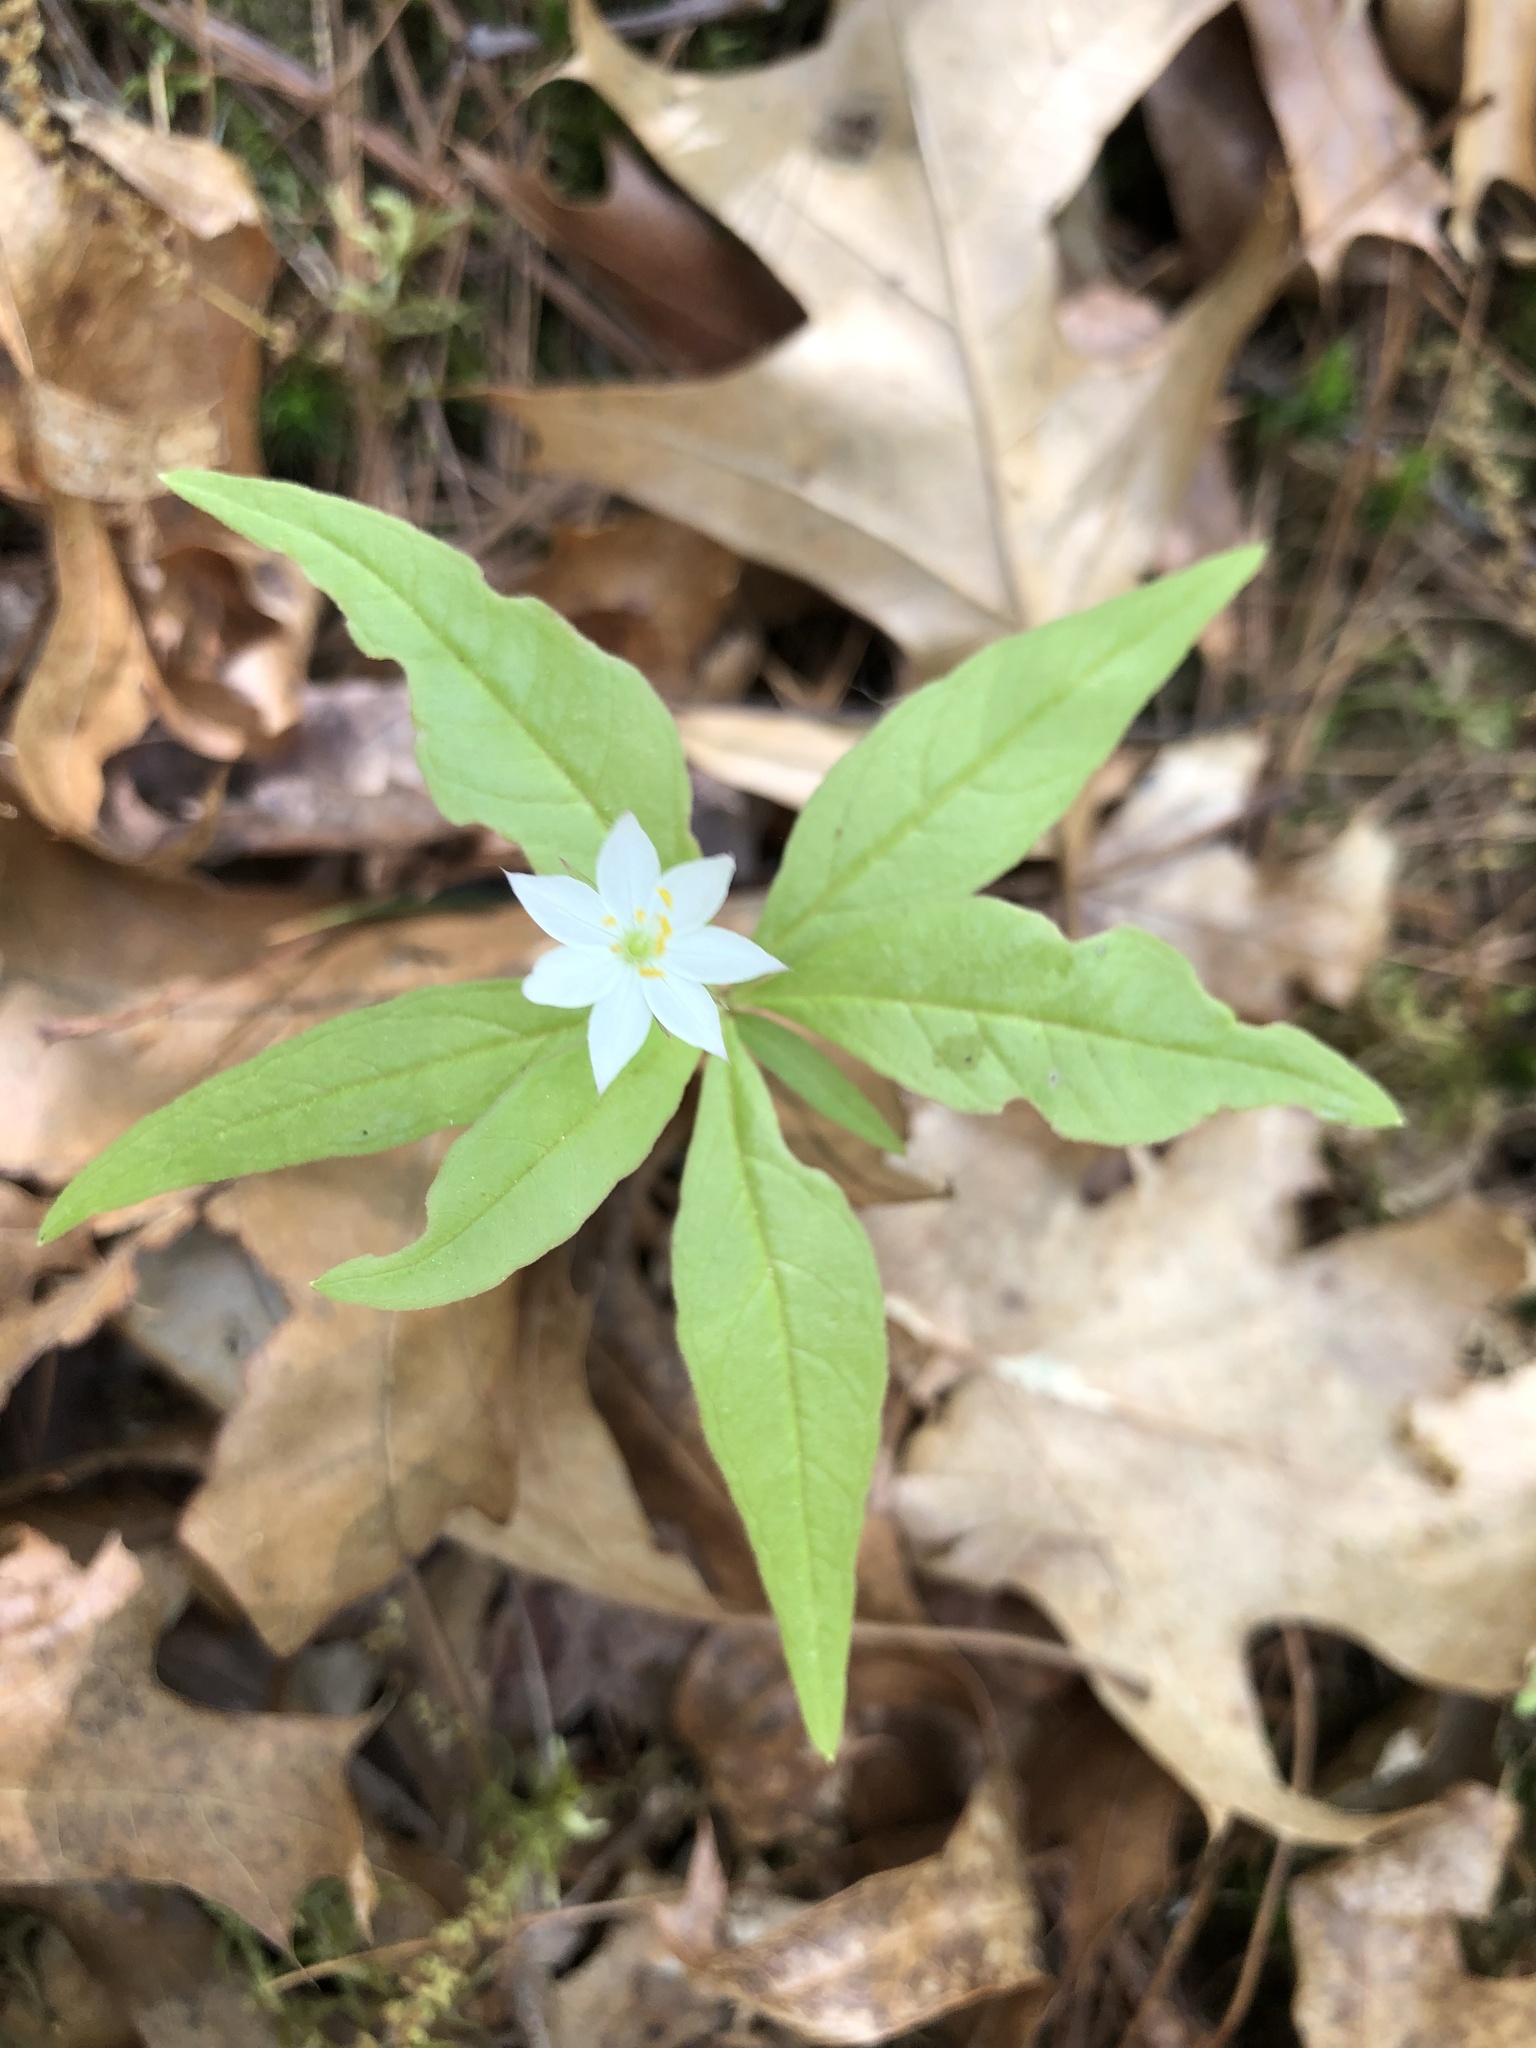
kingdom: Plantae
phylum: Tracheophyta
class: Magnoliopsida
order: Ericales
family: Primulaceae
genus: Lysimachia
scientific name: Lysimachia borealis
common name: American starflower
